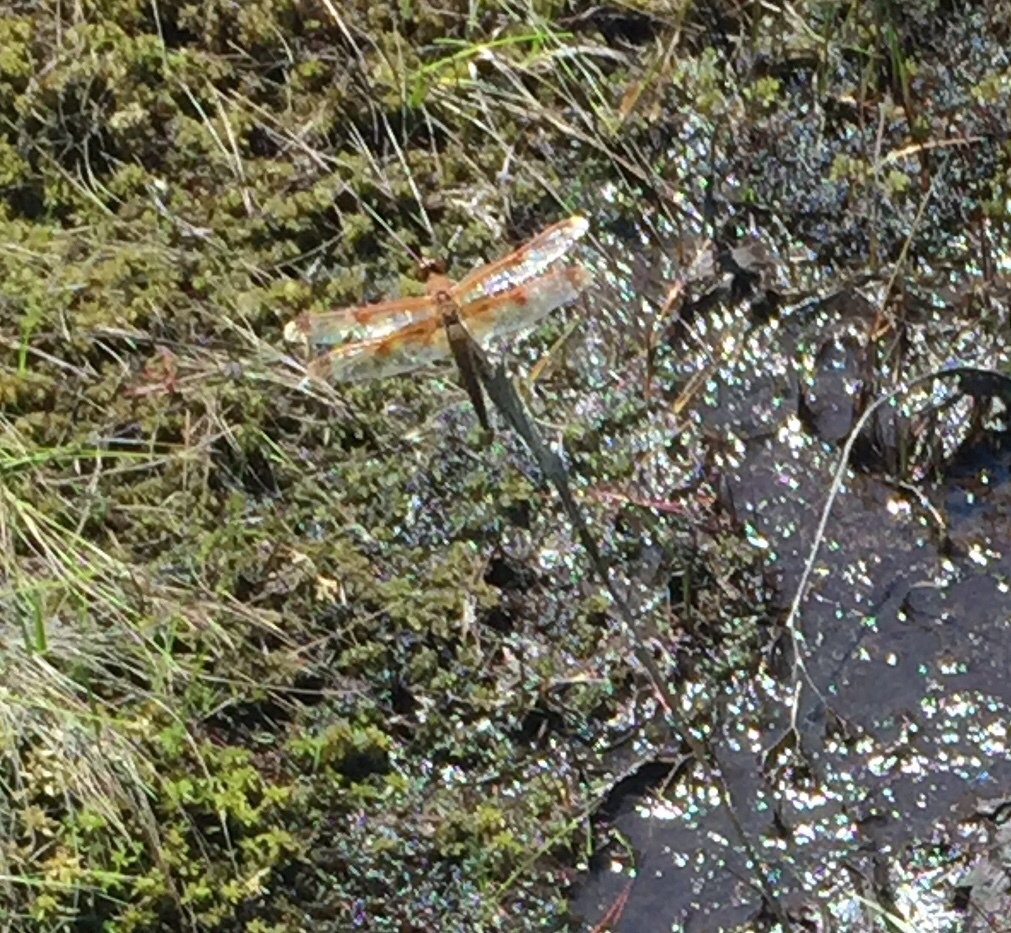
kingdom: Animalia
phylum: Arthropoda
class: Insecta
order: Odonata
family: Libellulidae
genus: Libellula
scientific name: Libellula semifasciata
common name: Painted skimmer
